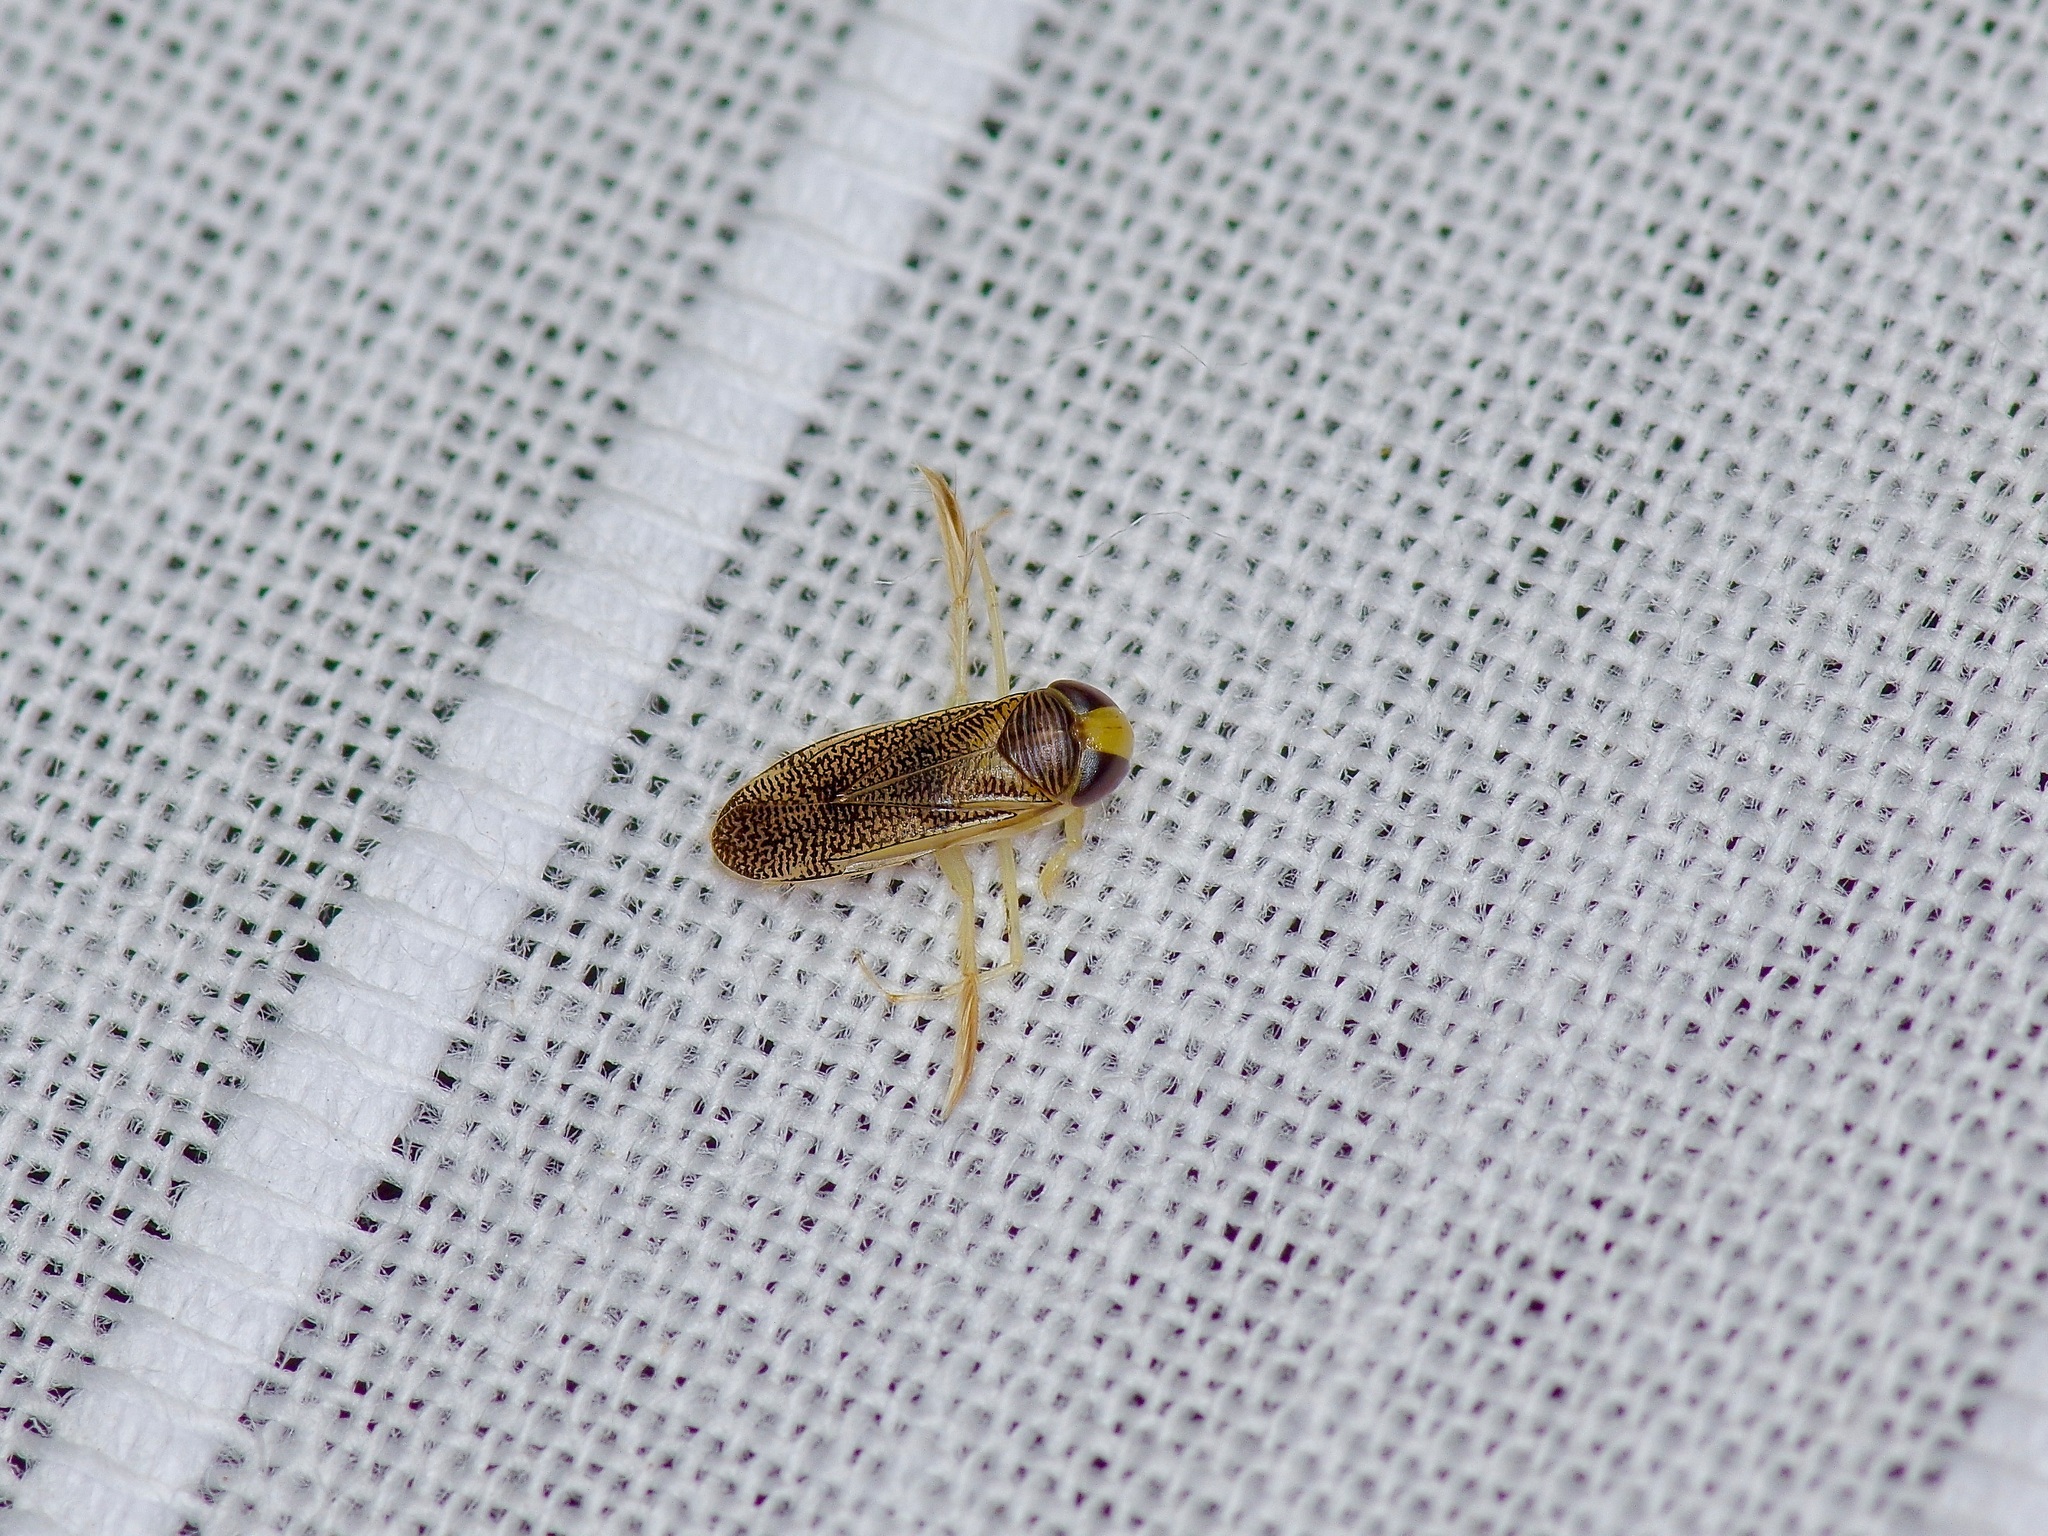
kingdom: Animalia
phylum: Arthropoda
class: Insecta
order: Hemiptera
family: Corixidae
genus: Trichocorixa
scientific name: Trichocorixa
